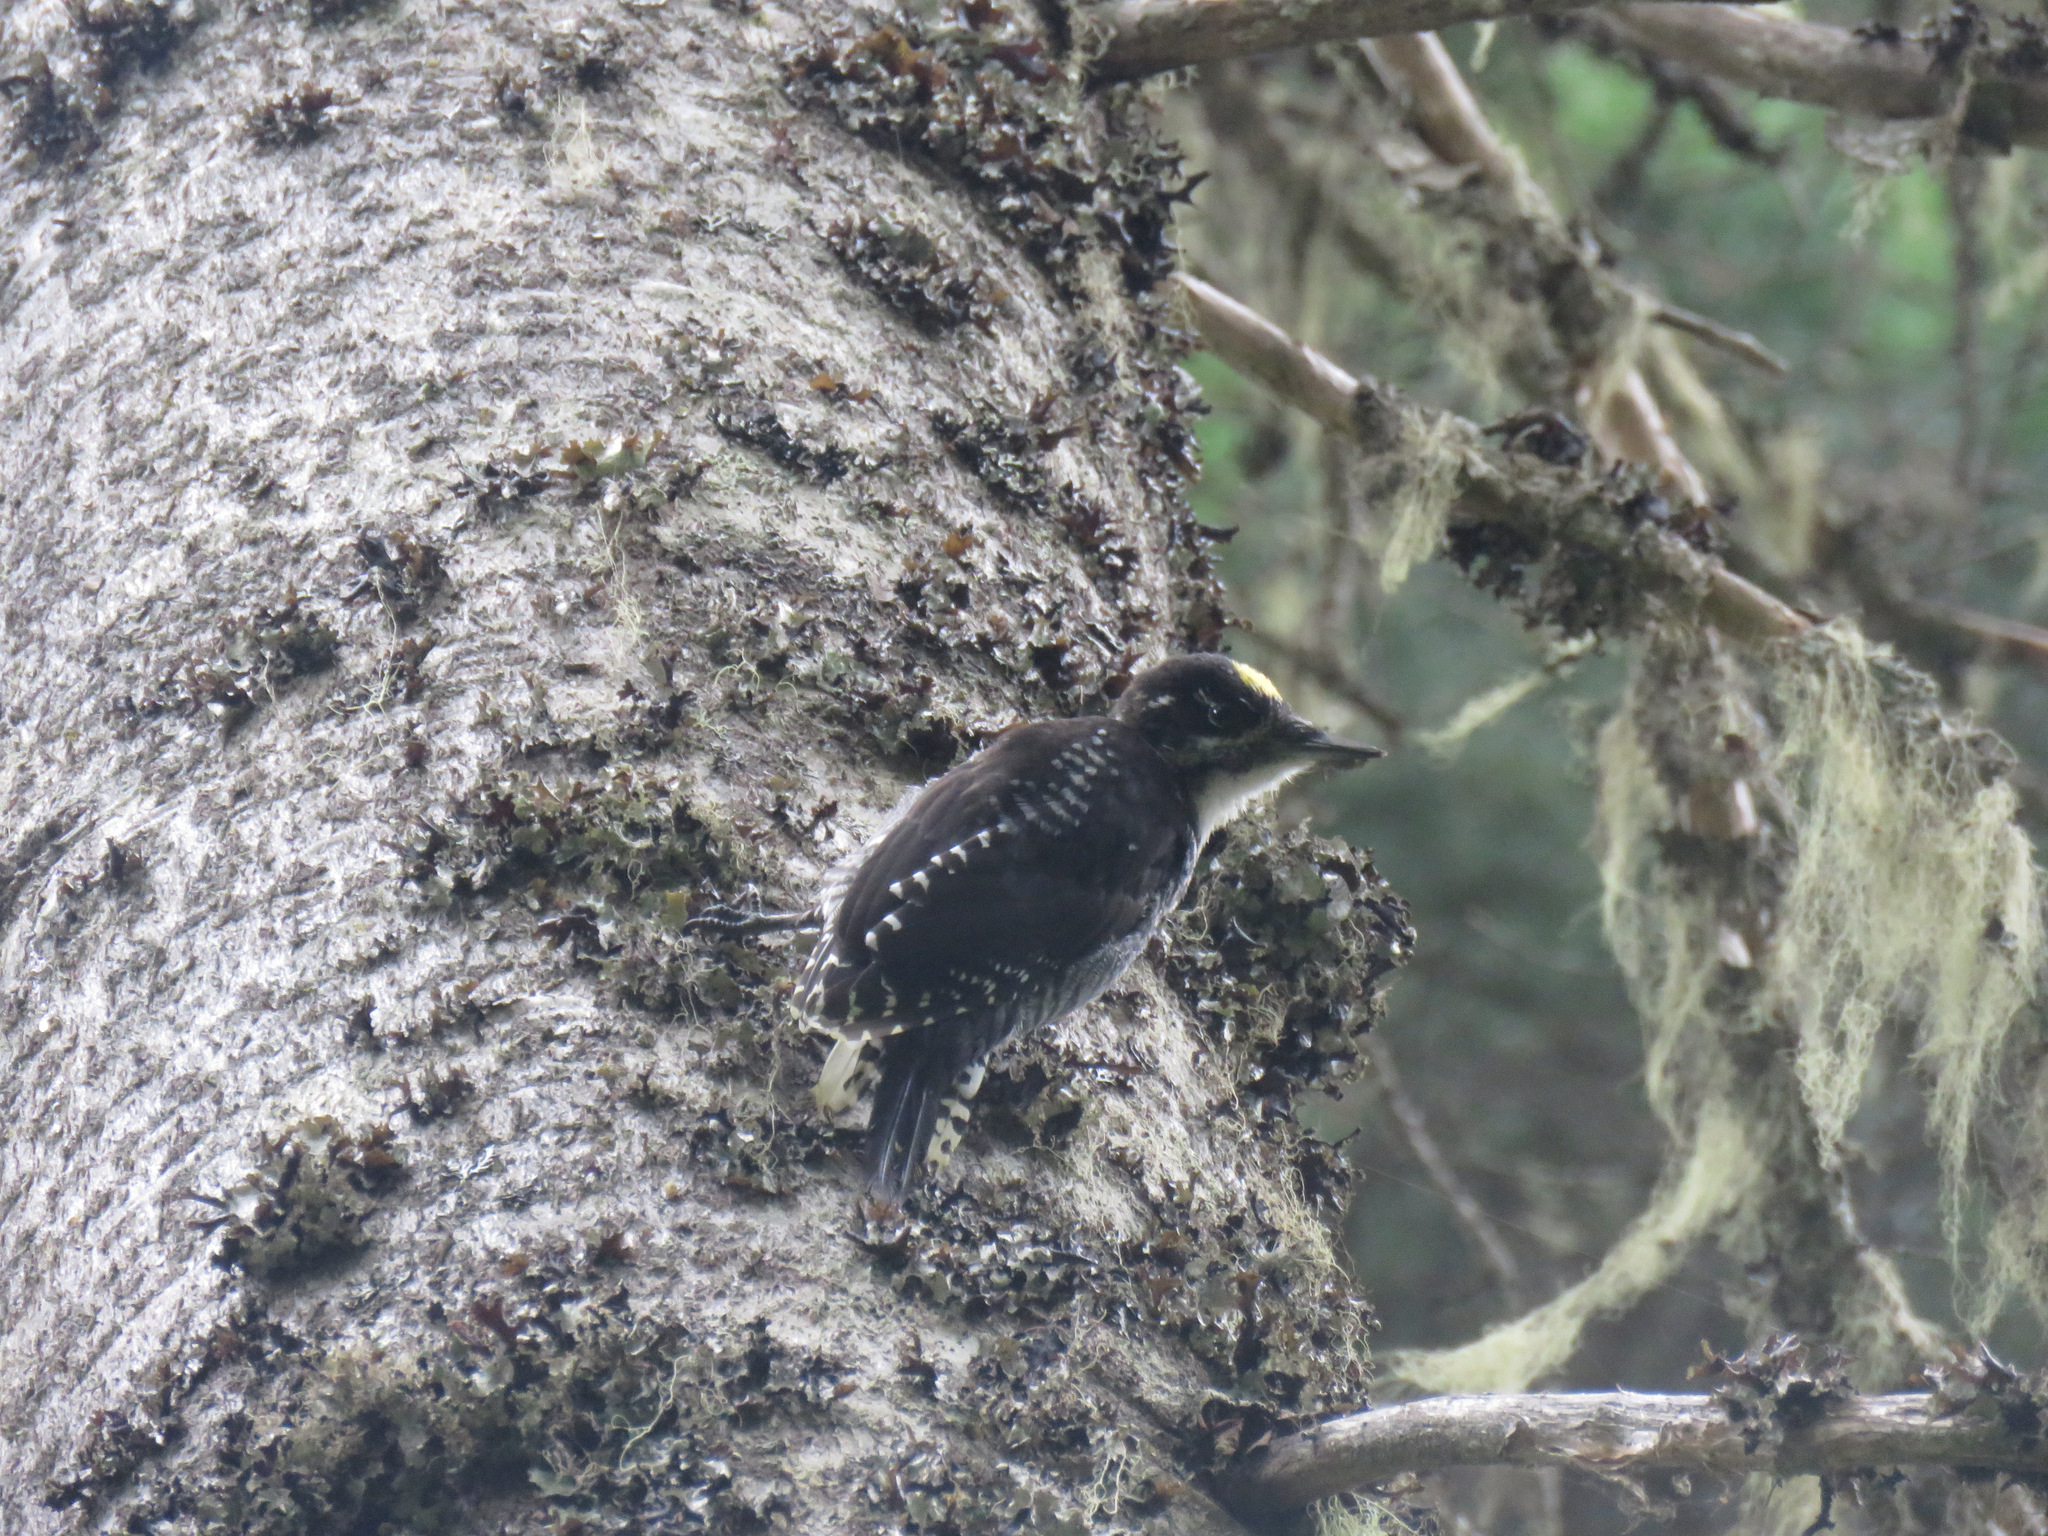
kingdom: Animalia
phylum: Chordata
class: Aves
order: Piciformes
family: Picidae
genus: Picoides
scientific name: Picoides dorsalis
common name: American three-toed woodpecker
